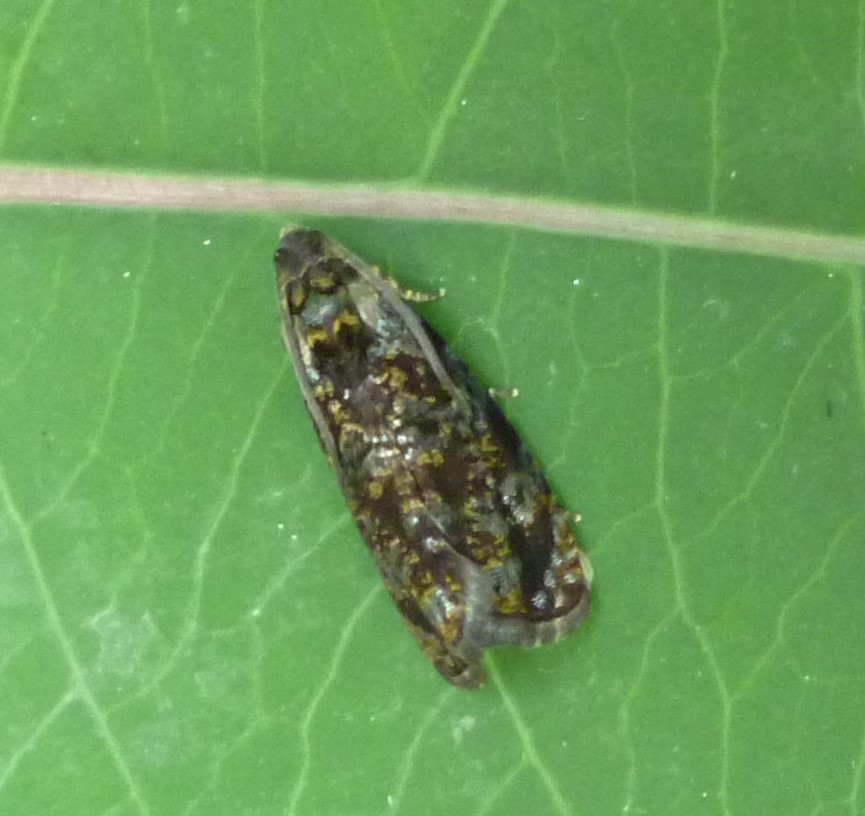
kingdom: Animalia
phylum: Arthropoda
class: Insecta
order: Lepidoptera
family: Tortricidae
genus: Pristerognatha
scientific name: Pristerognatha agilana
